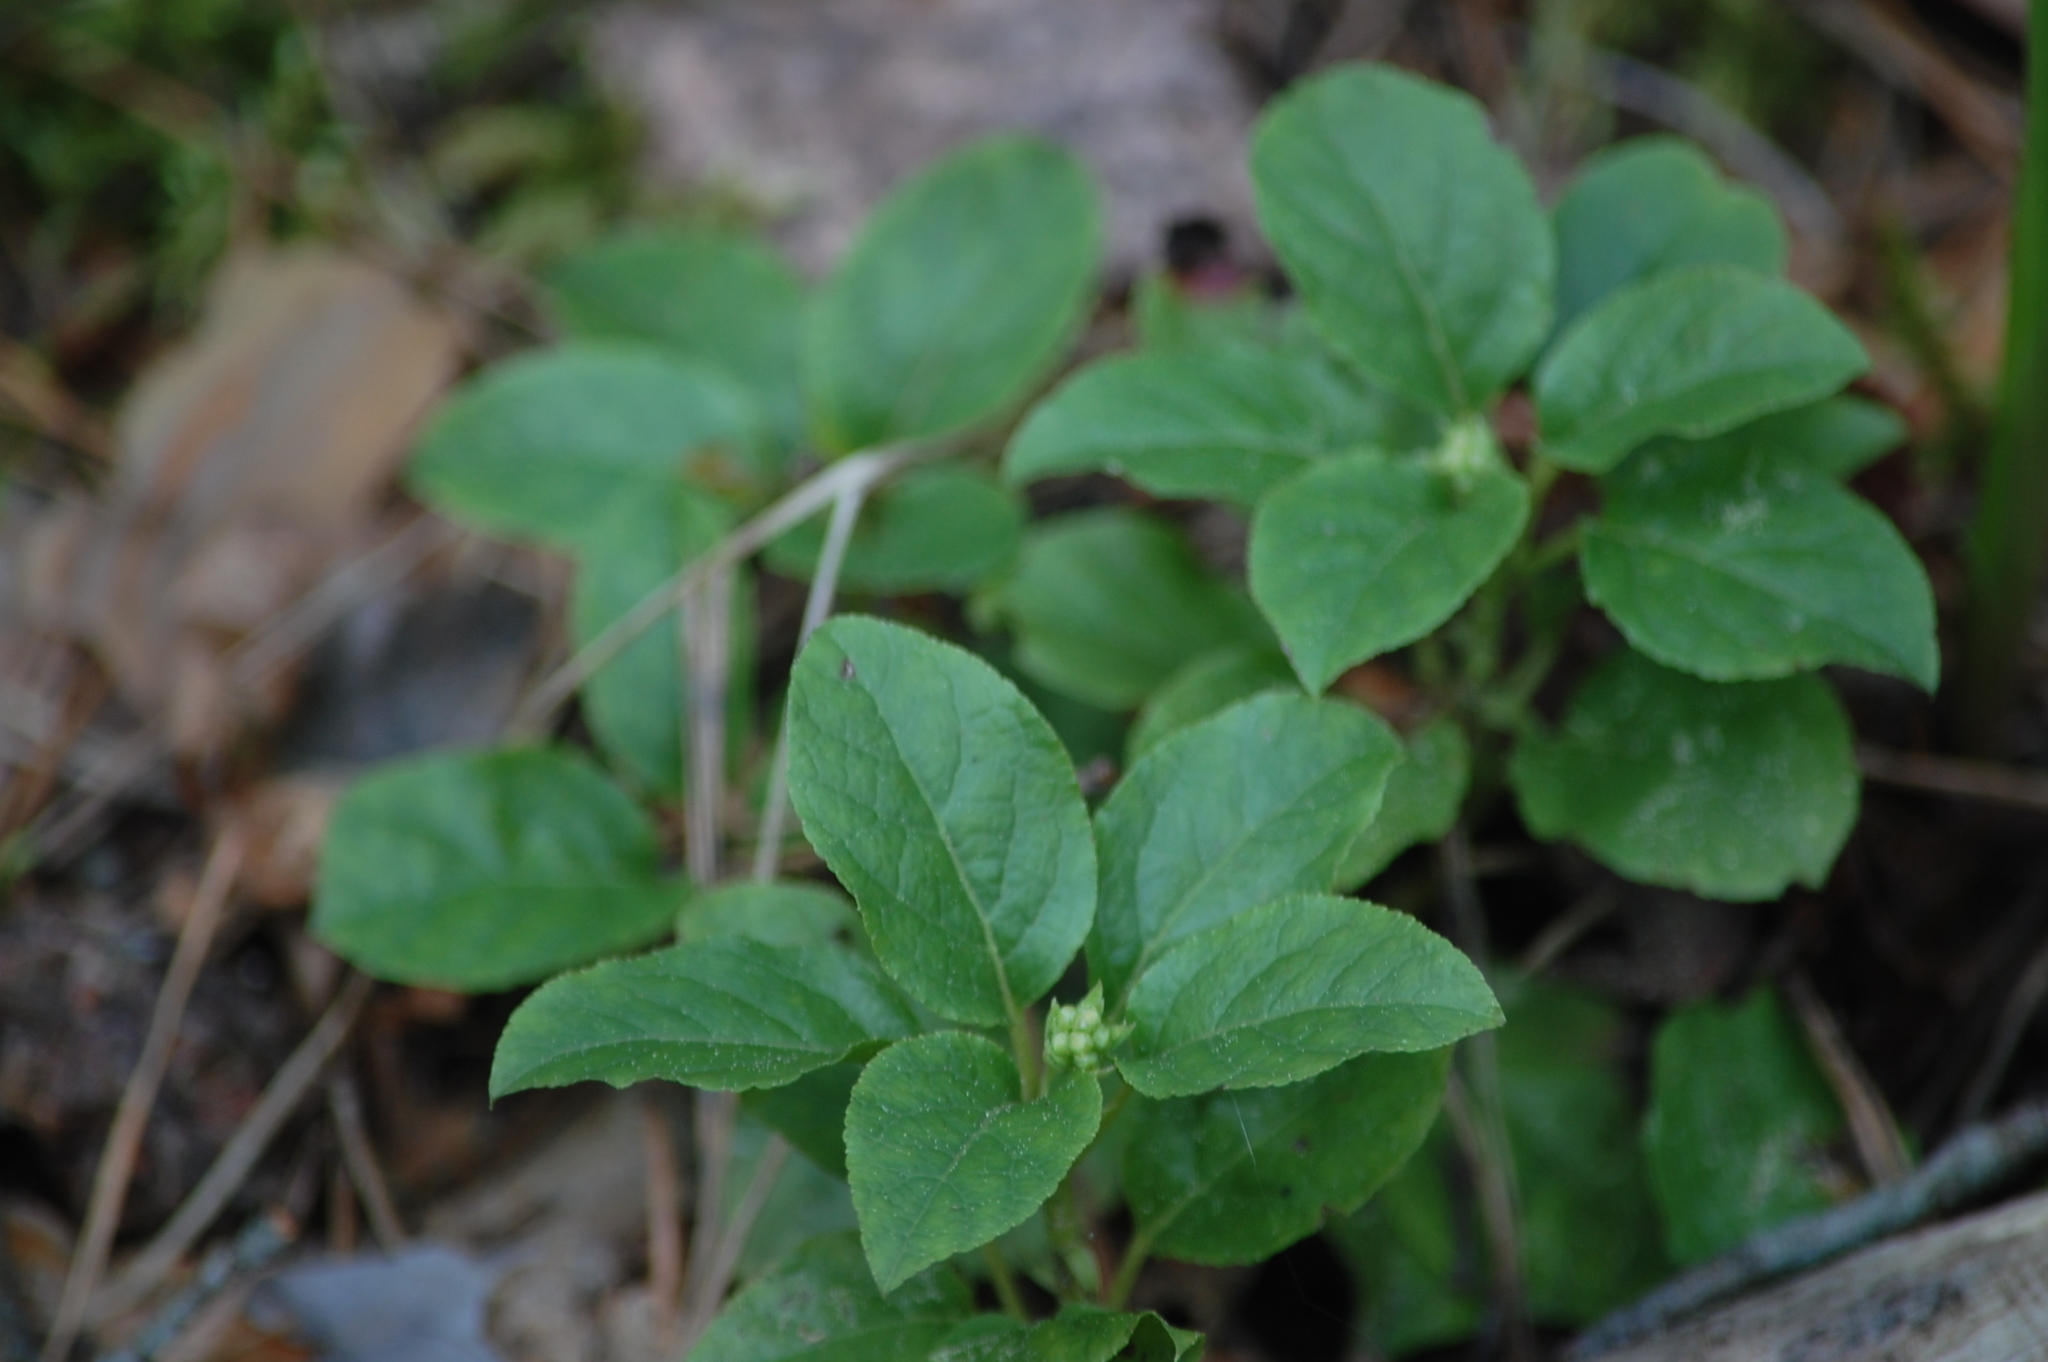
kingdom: Plantae
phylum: Tracheophyta
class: Magnoliopsida
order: Ericales
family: Ericaceae
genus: Orthilia
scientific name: Orthilia secunda
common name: One-sided orthilia
